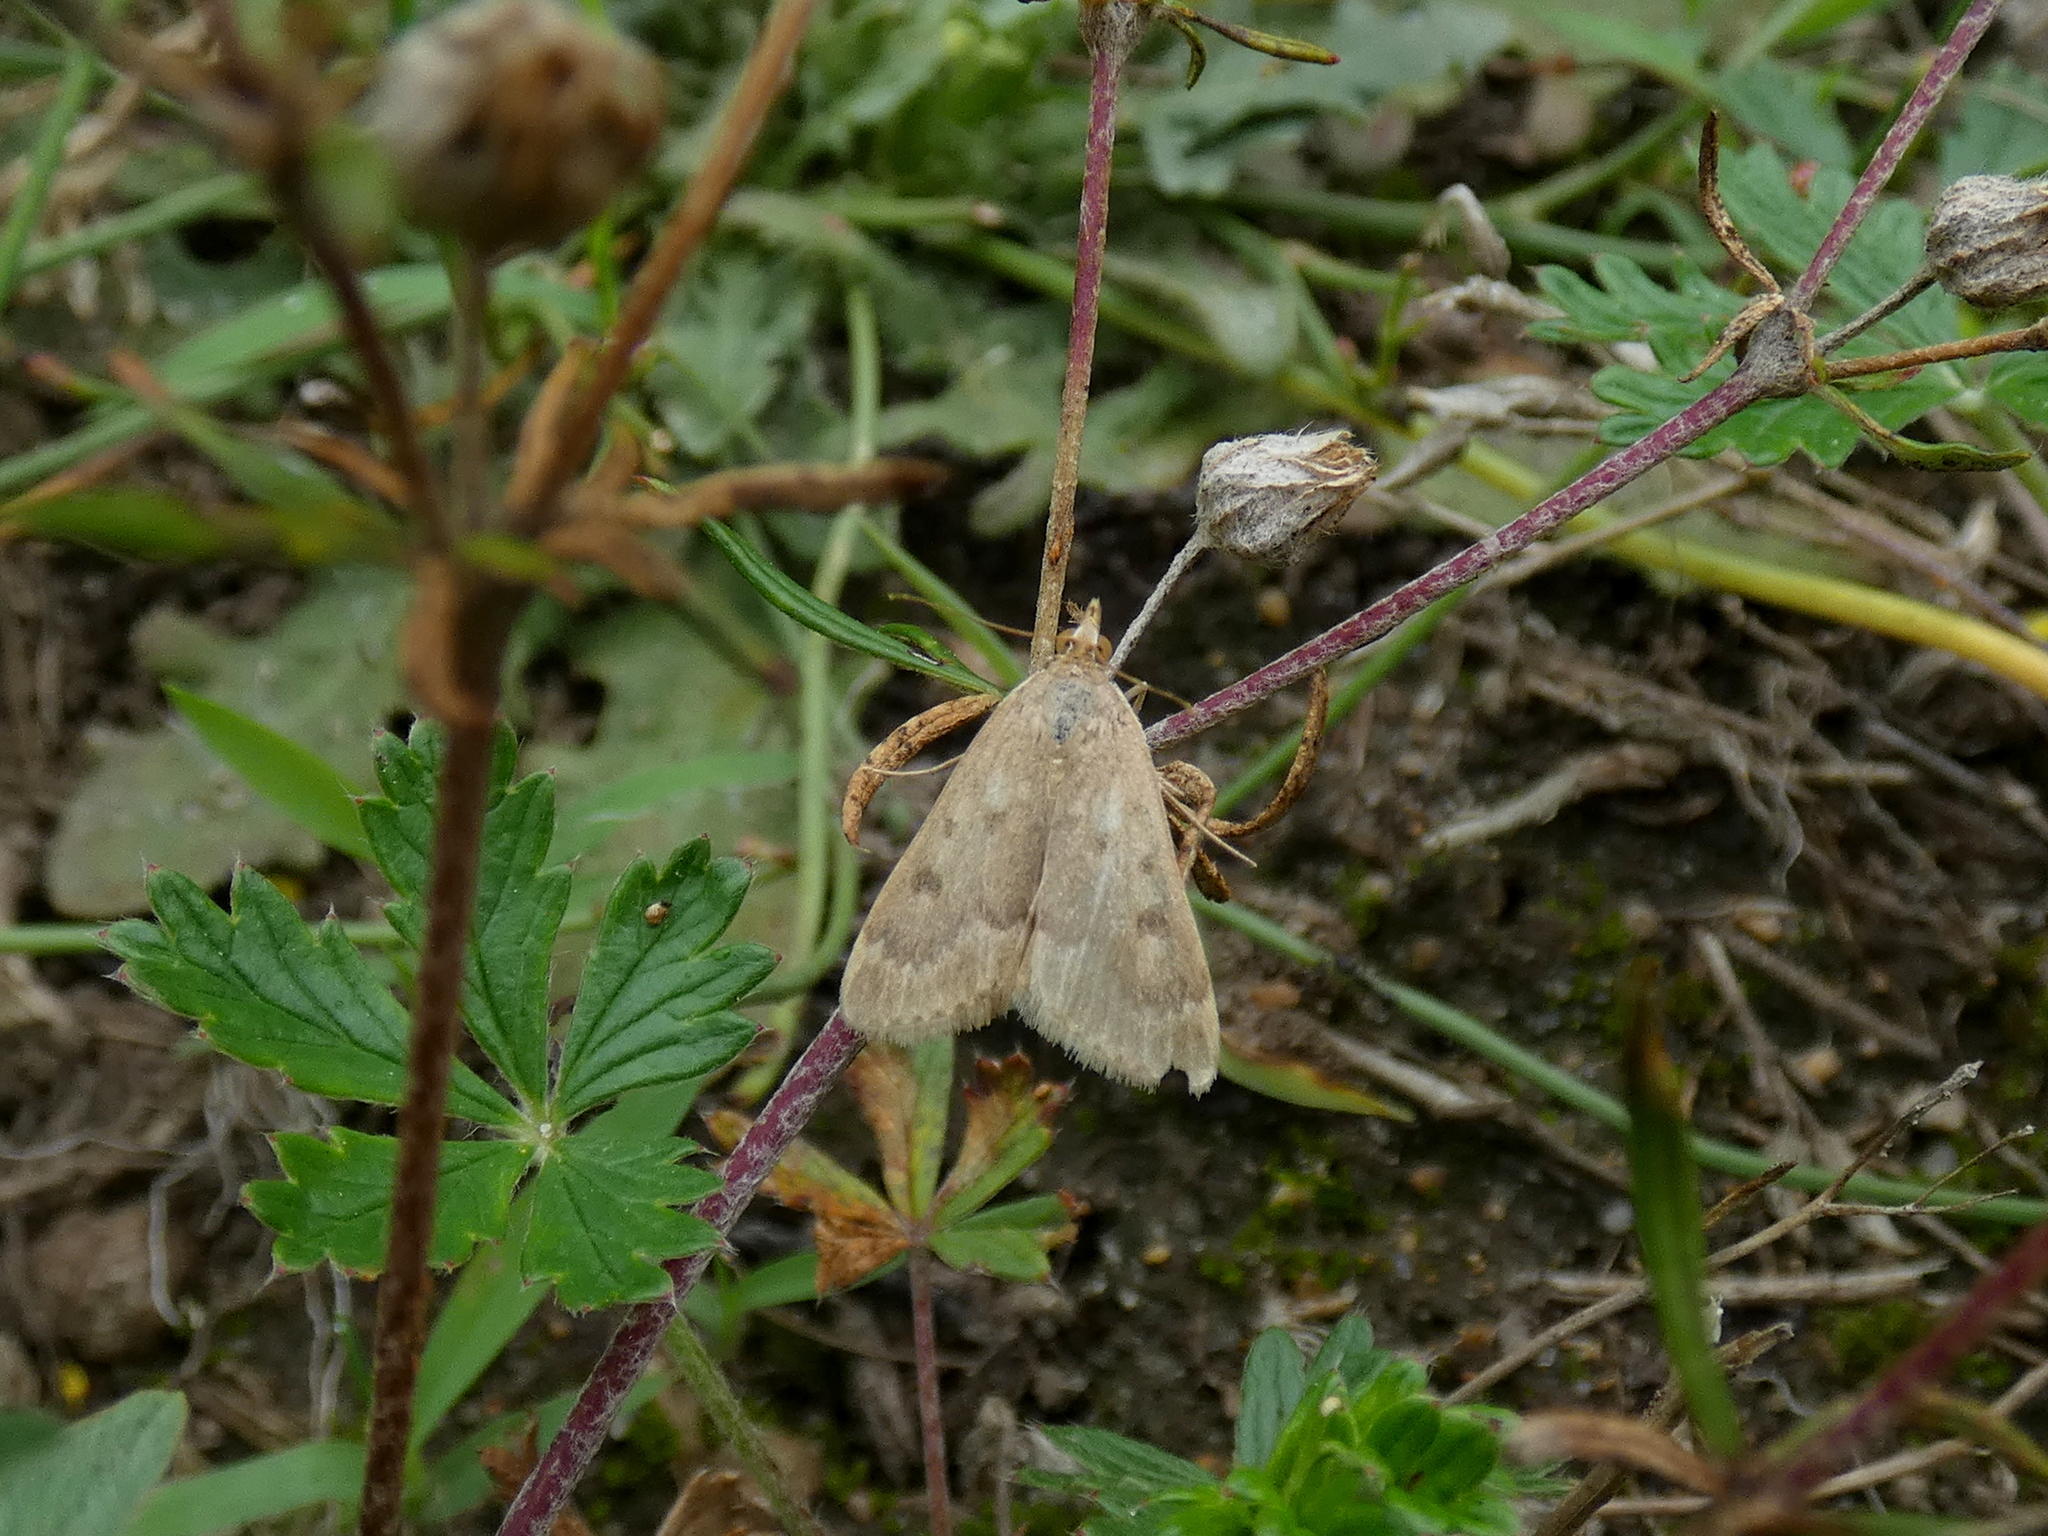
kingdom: Animalia
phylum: Arthropoda
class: Insecta
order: Lepidoptera
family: Crambidae
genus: Achyra
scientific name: Achyra rantalis
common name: Garden webworm
